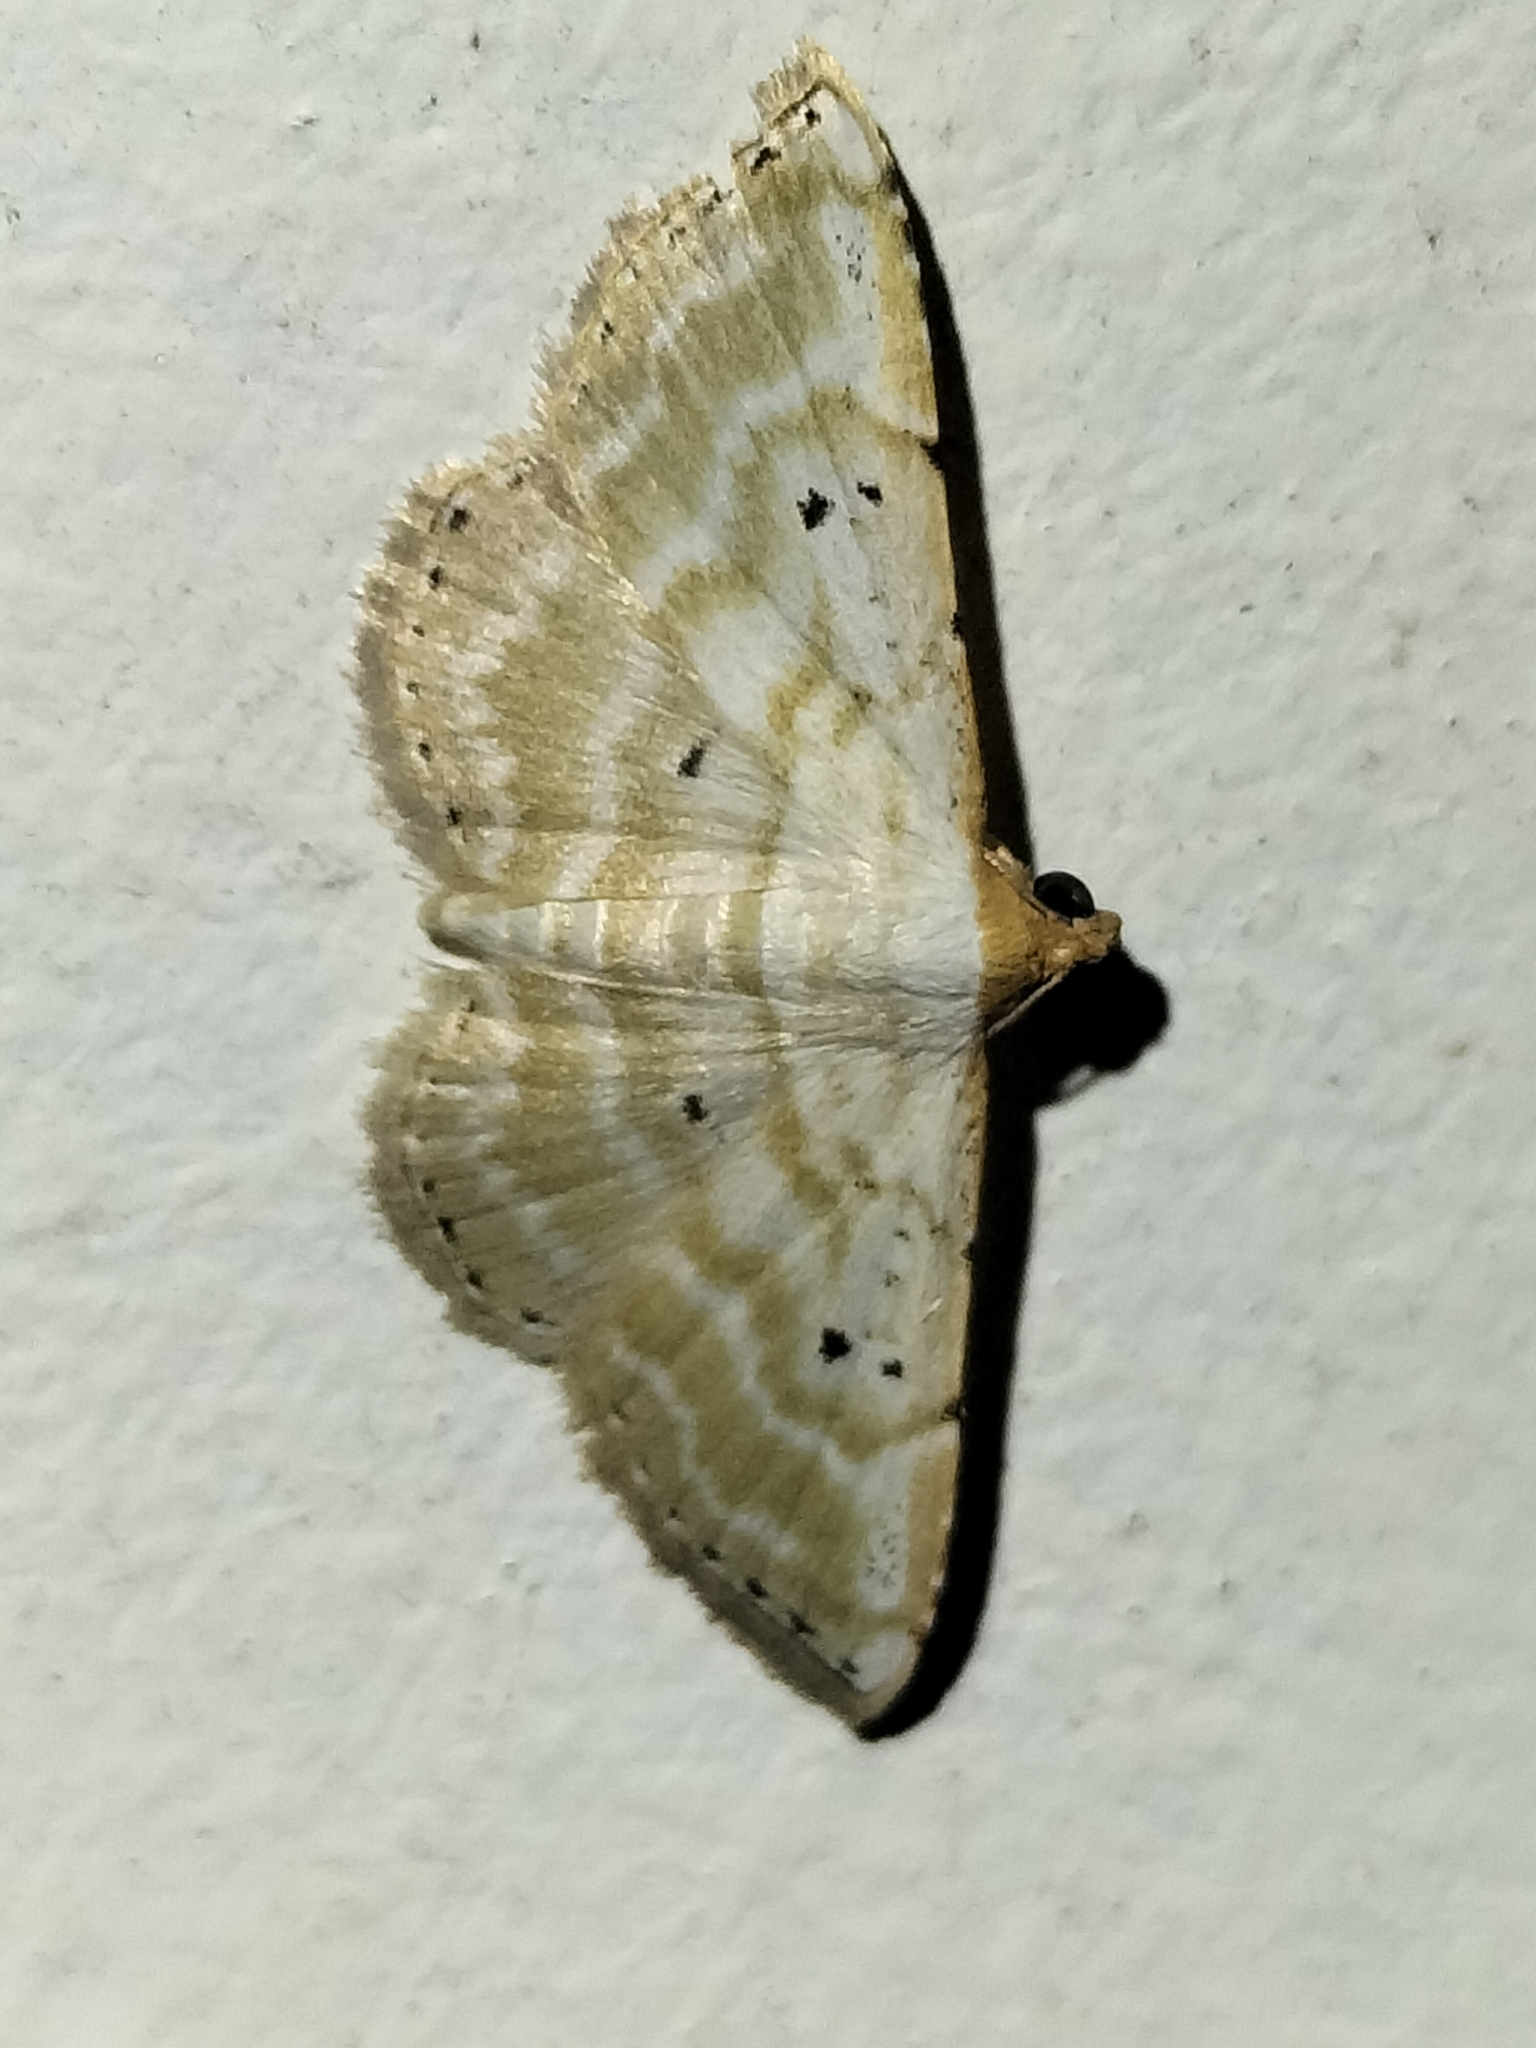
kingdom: Animalia
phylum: Arthropoda
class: Insecta
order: Lepidoptera
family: Noctuidae
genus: Oruza
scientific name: Oruza cariosa
